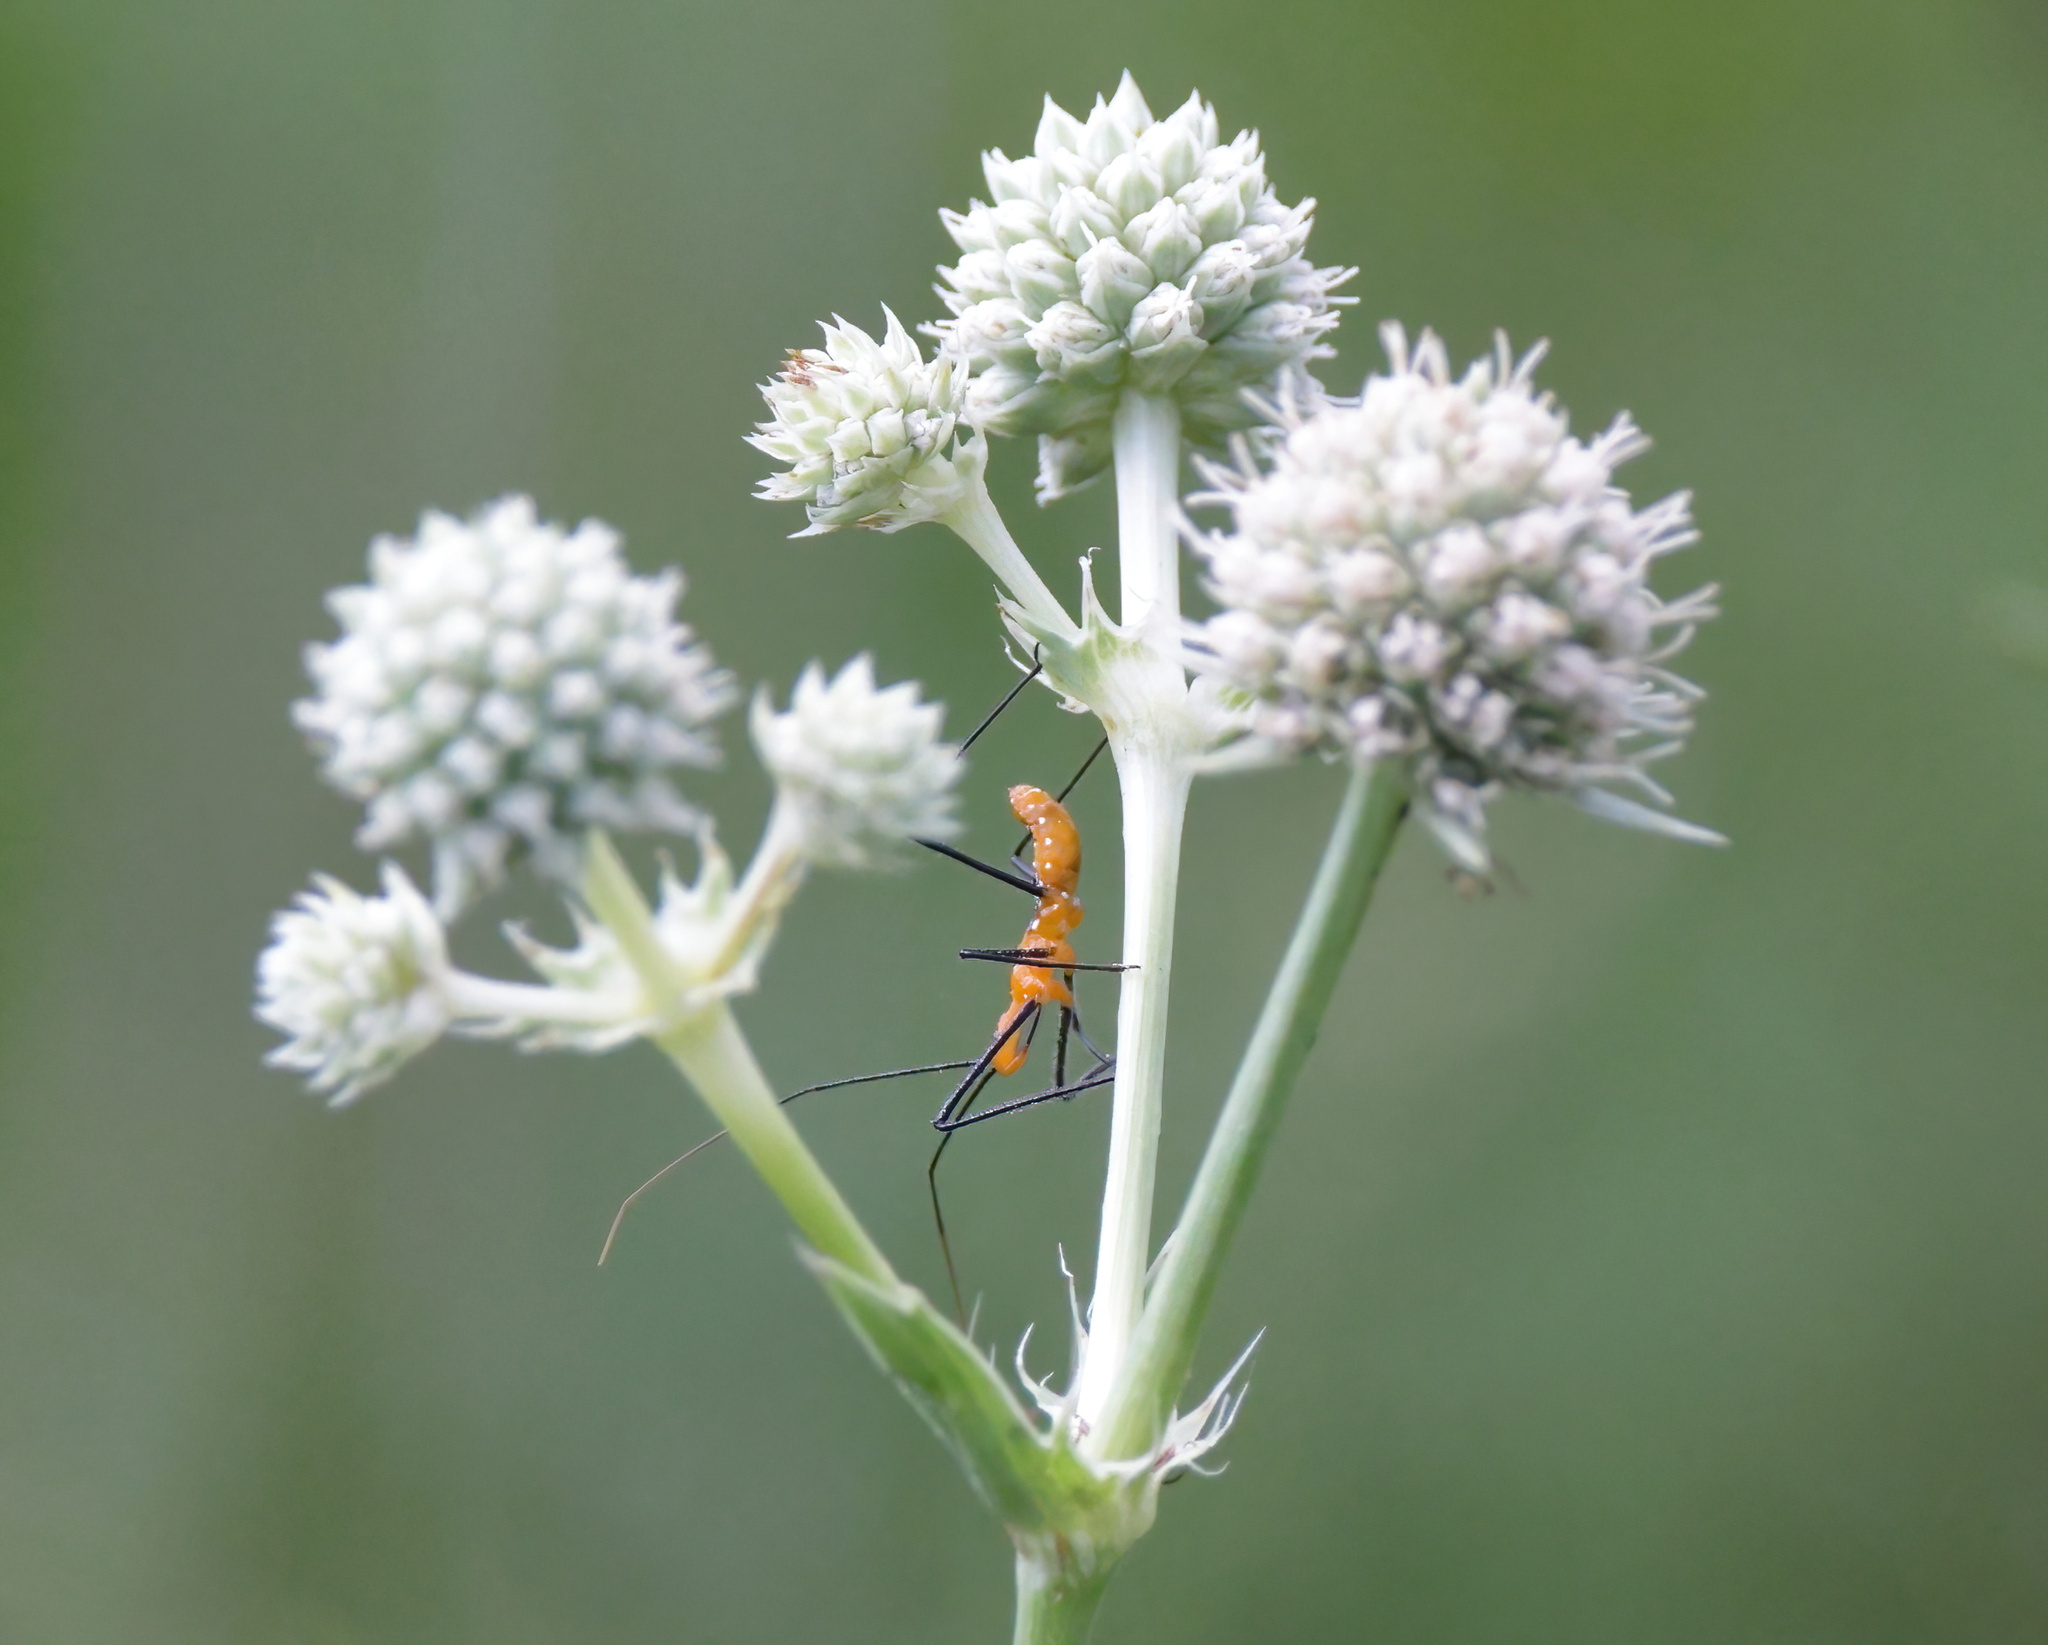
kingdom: Animalia
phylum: Arthropoda
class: Insecta
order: Hemiptera
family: Reduviidae
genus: Zelus
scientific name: Zelus longipes
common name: Milkweed assassin bug
